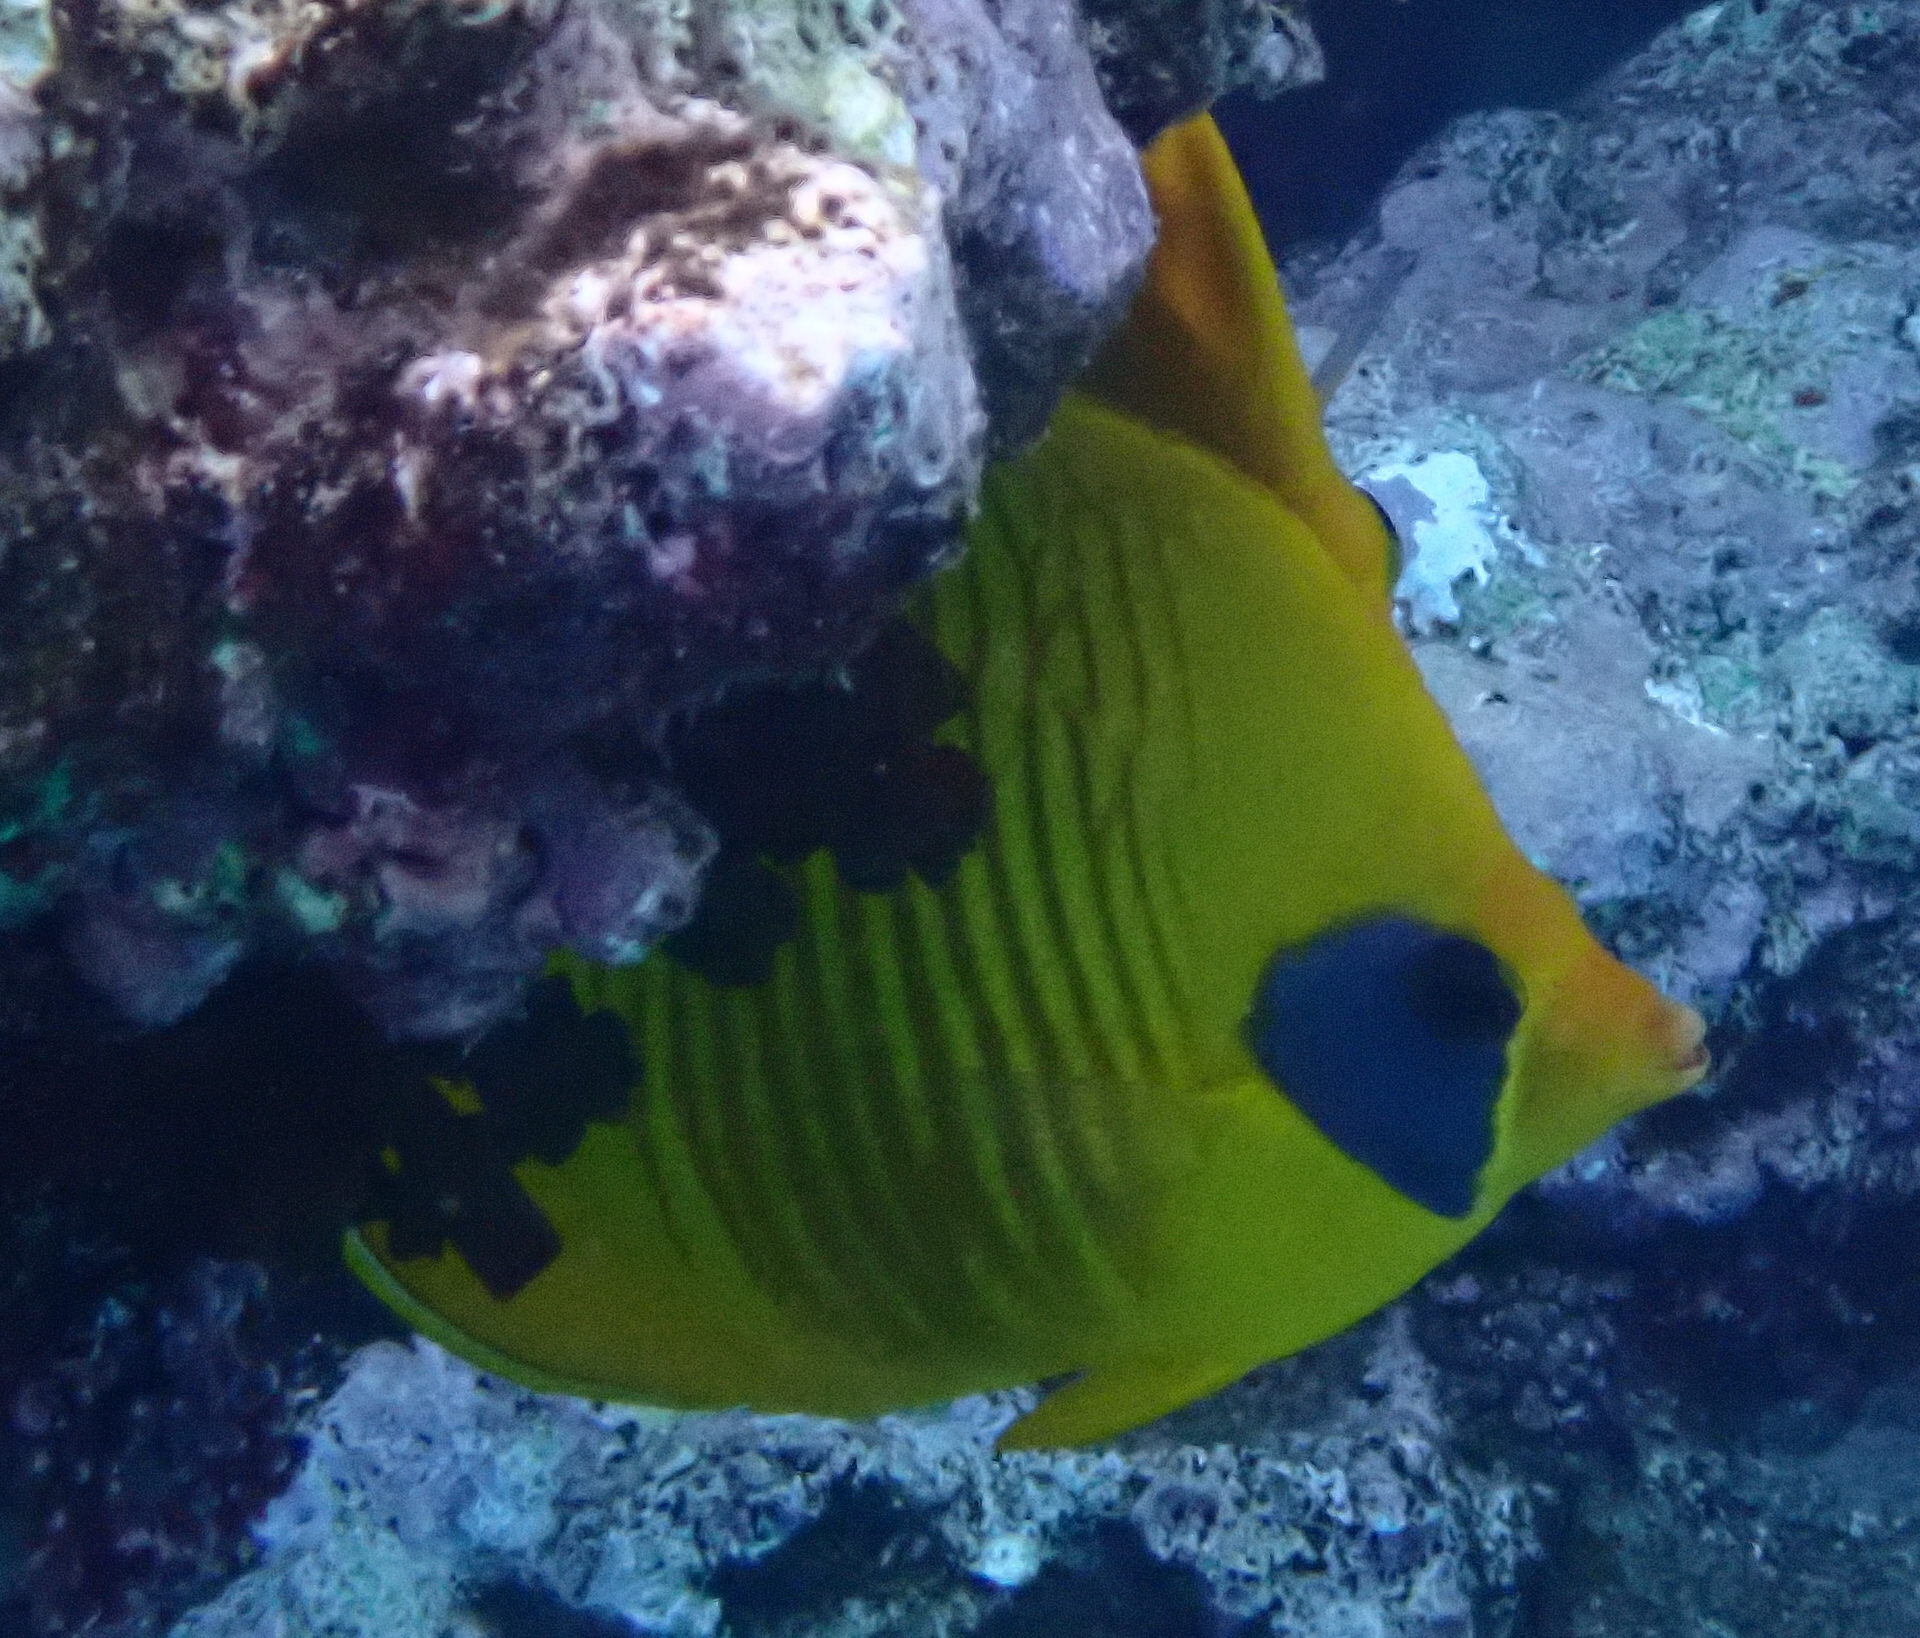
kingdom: Animalia
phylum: Chordata
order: Perciformes
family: Chaetodontidae
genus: Chaetodon
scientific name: Chaetodon semilarvatus
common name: Golden butterflyfish
